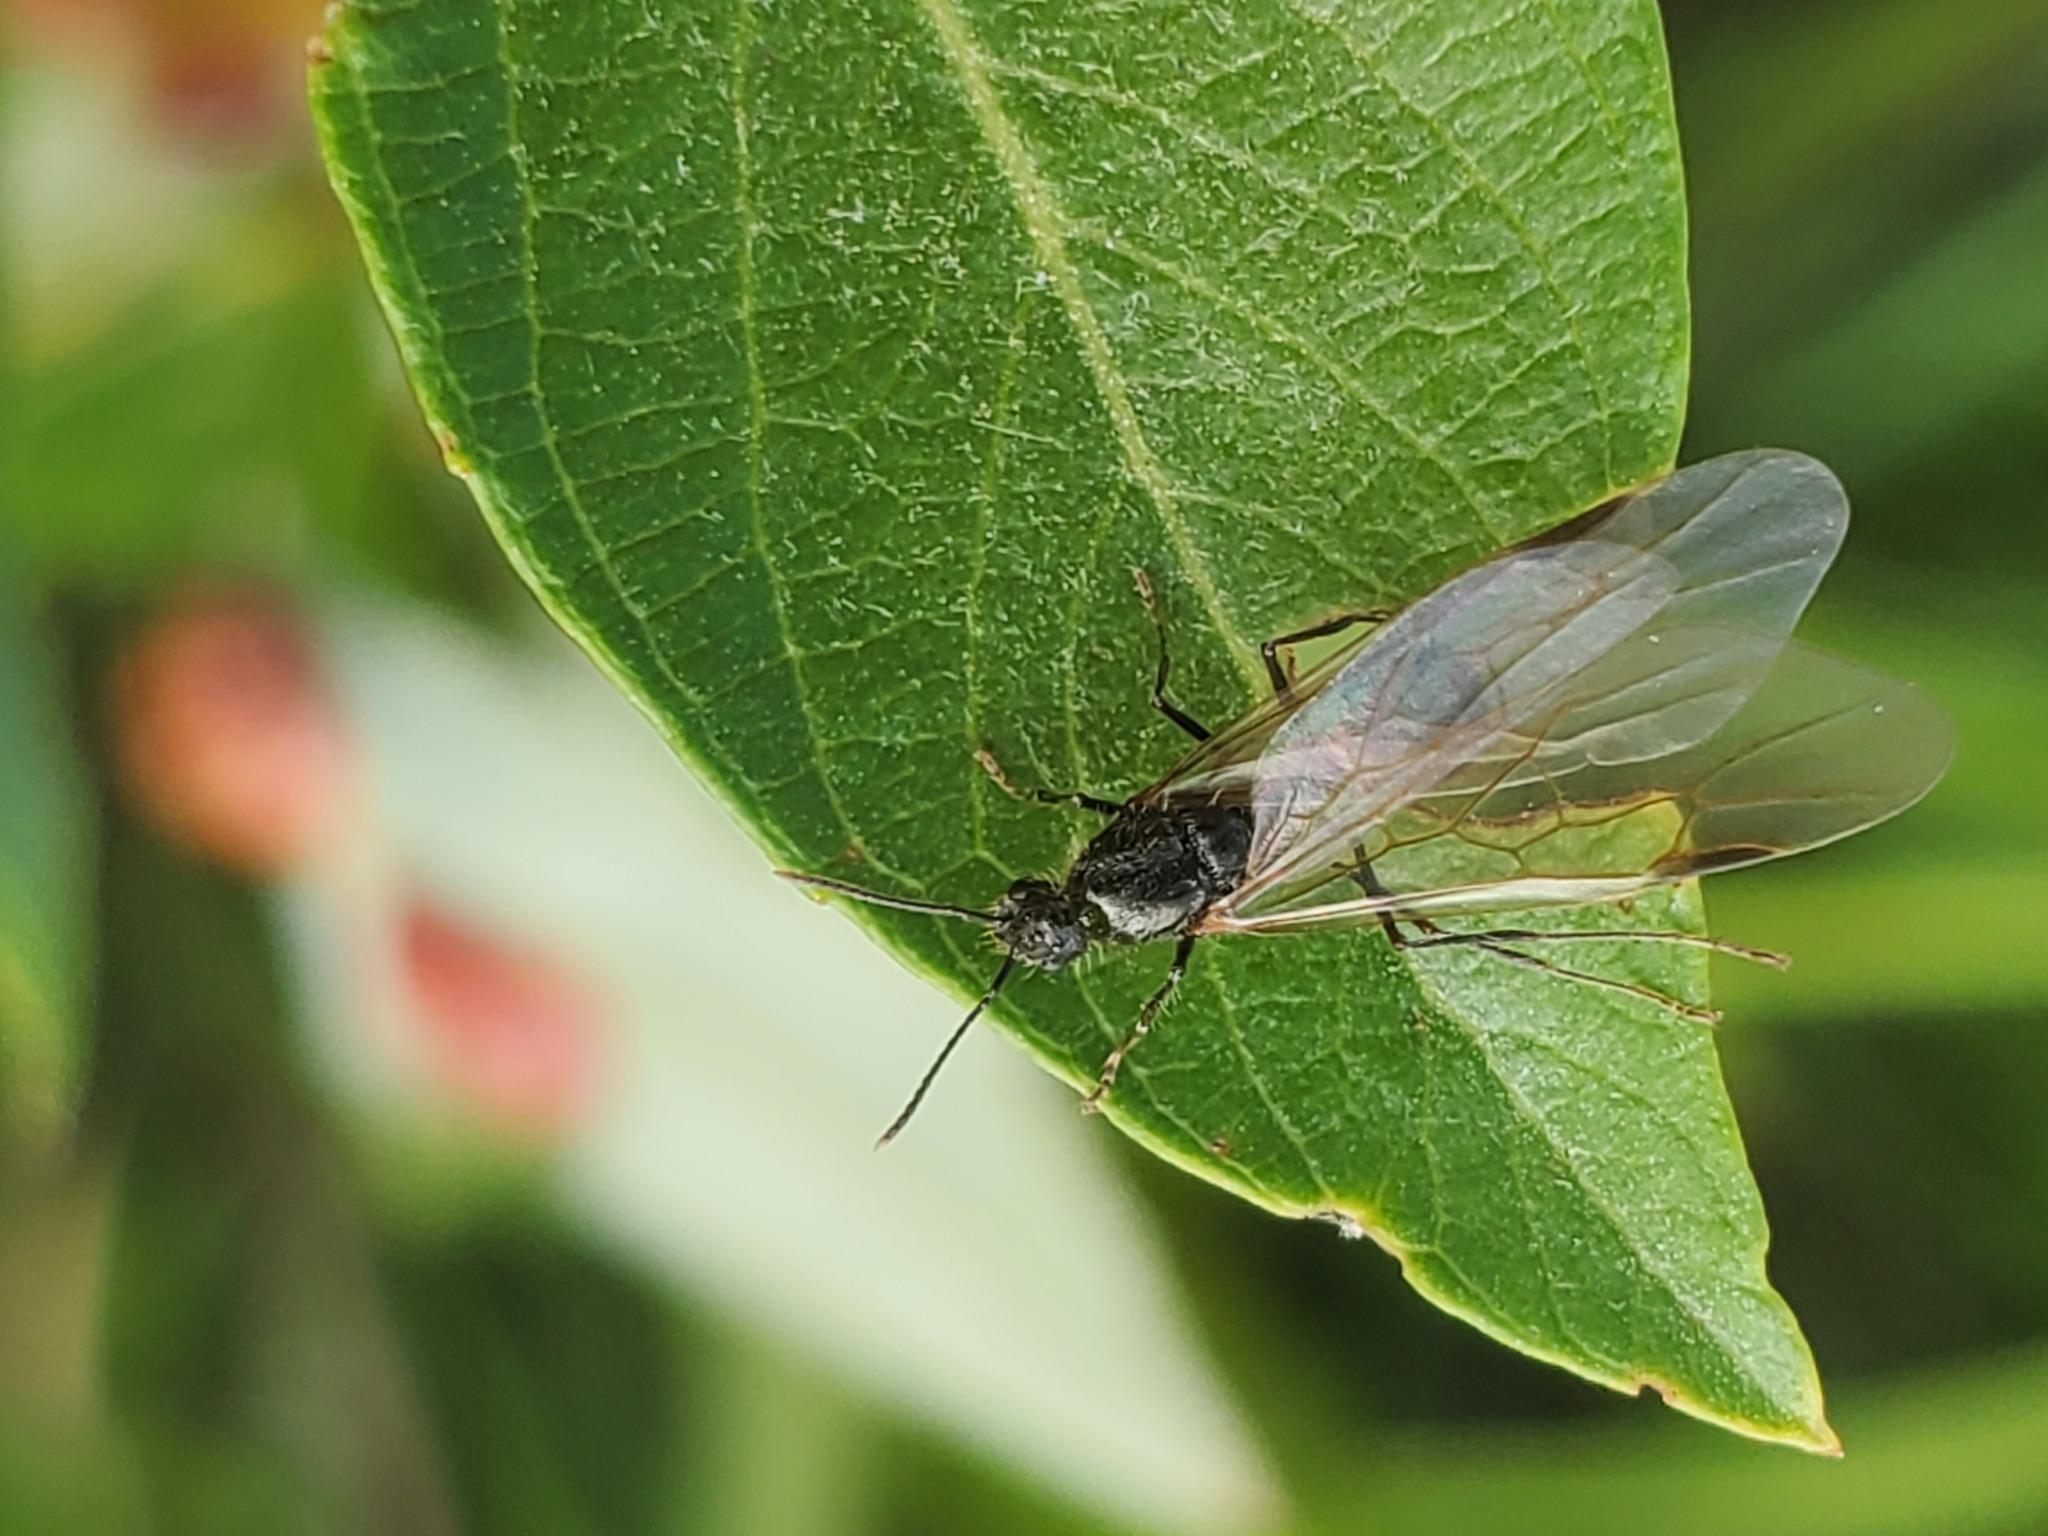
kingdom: Animalia
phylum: Arthropoda
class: Insecta
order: Hymenoptera
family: Formicidae
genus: Veromessor
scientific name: Veromessor andrei
